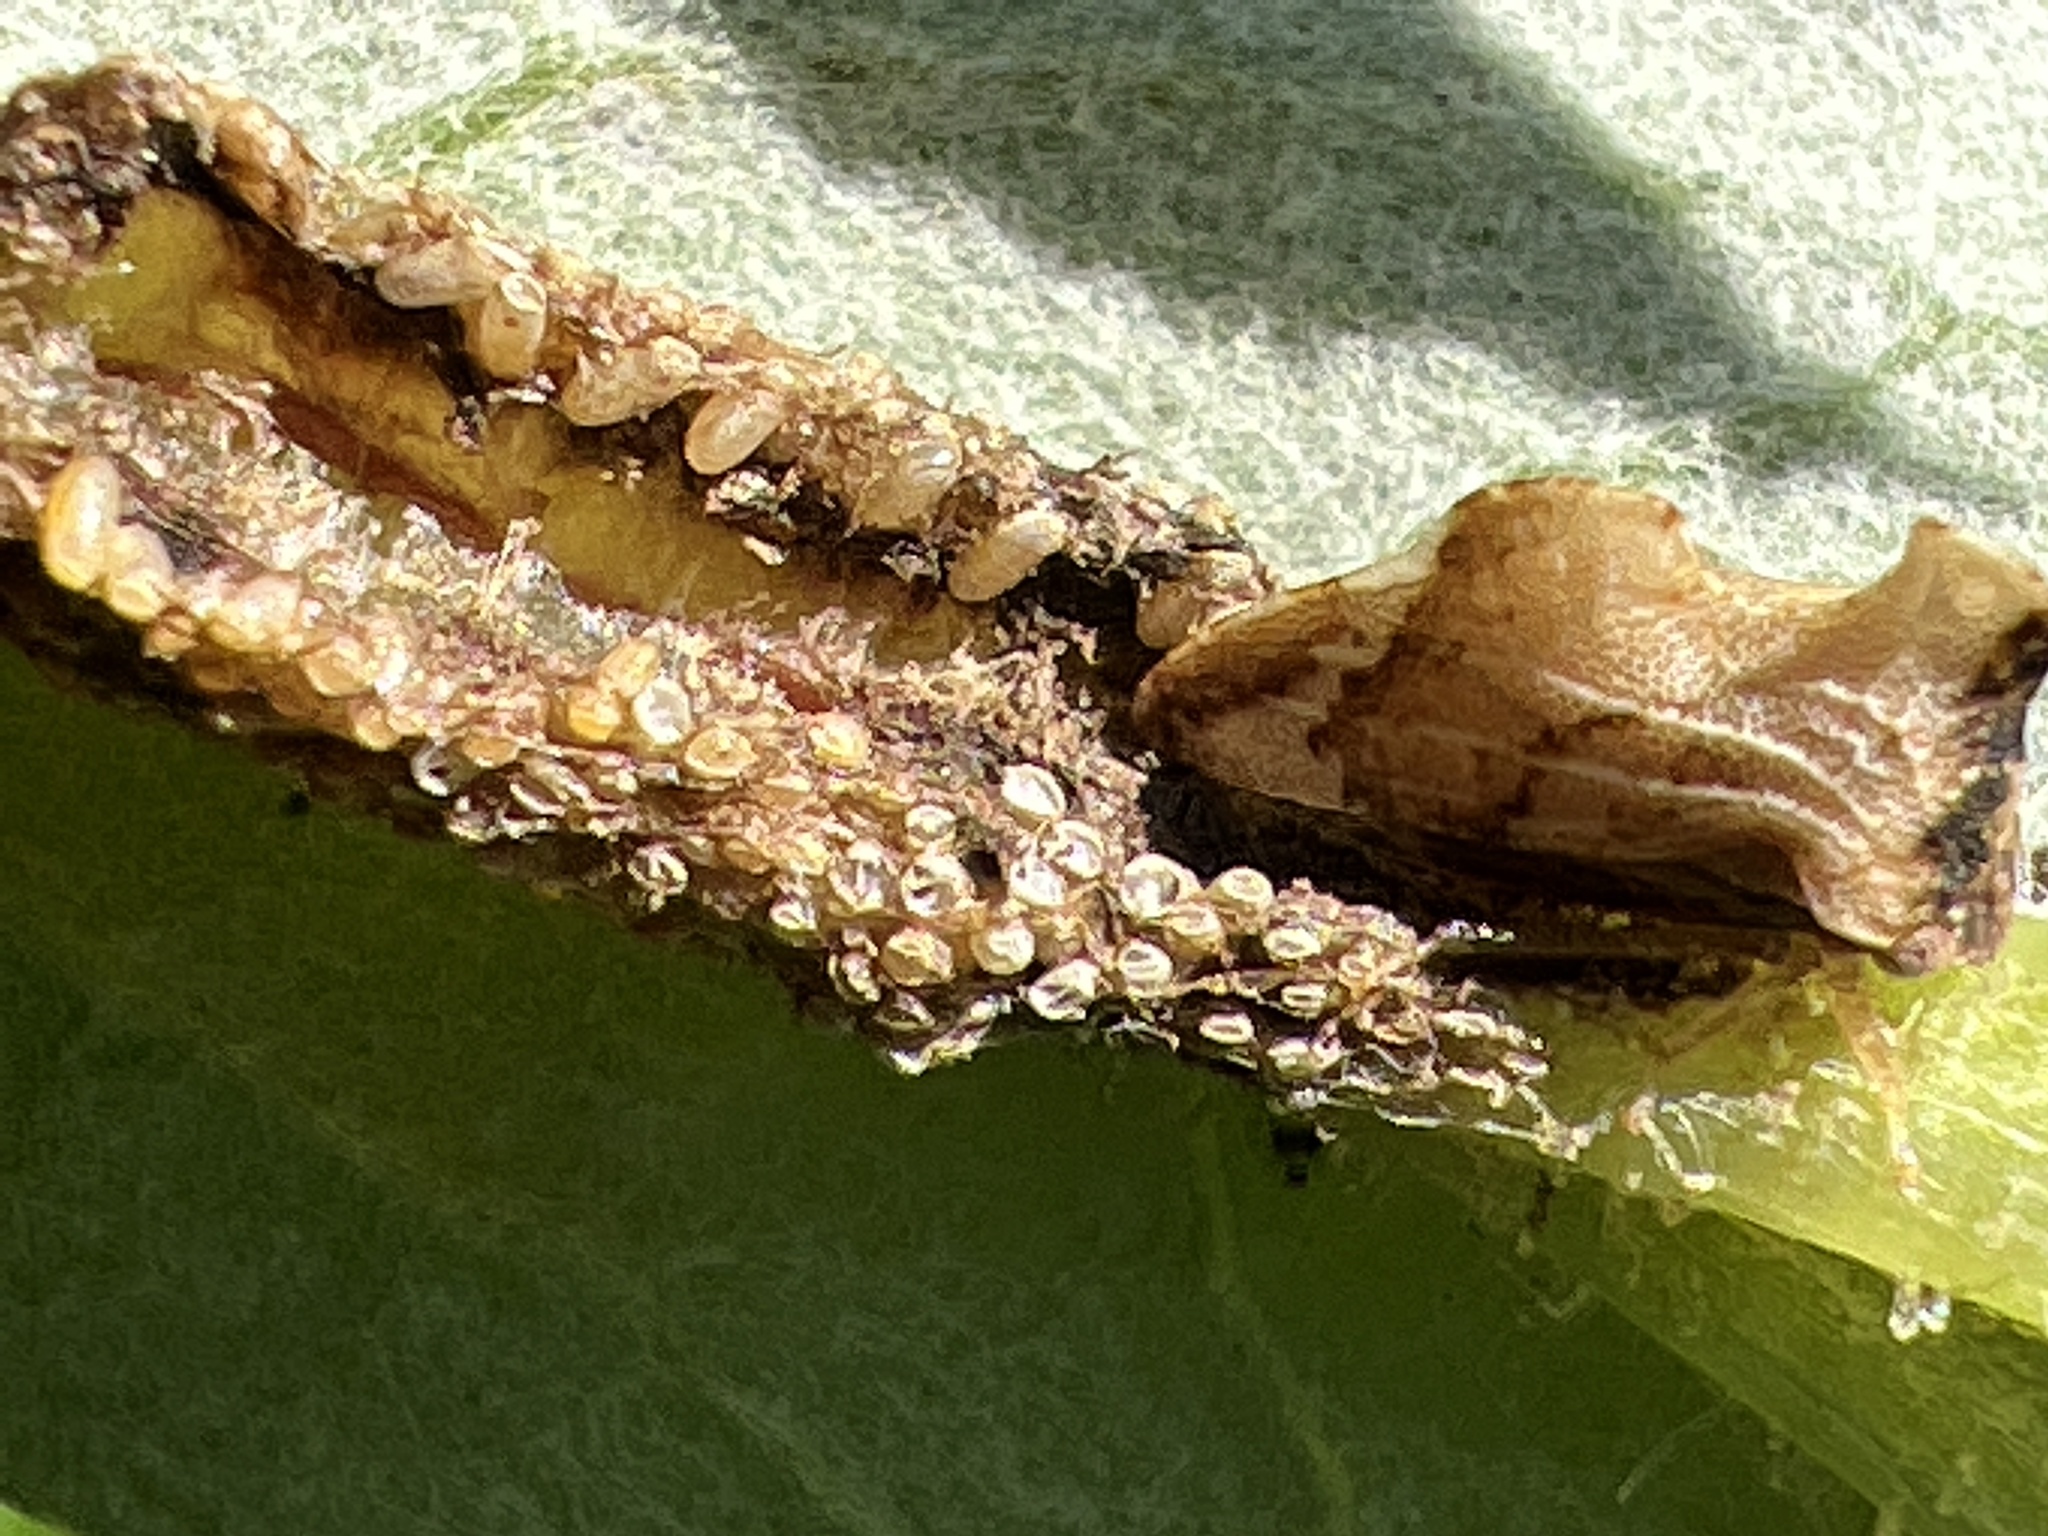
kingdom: Animalia
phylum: Arthropoda
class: Insecta
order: Hemiptera
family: Membracidae
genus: Entylia
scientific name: Entylia carinata
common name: Keeled treehopper
